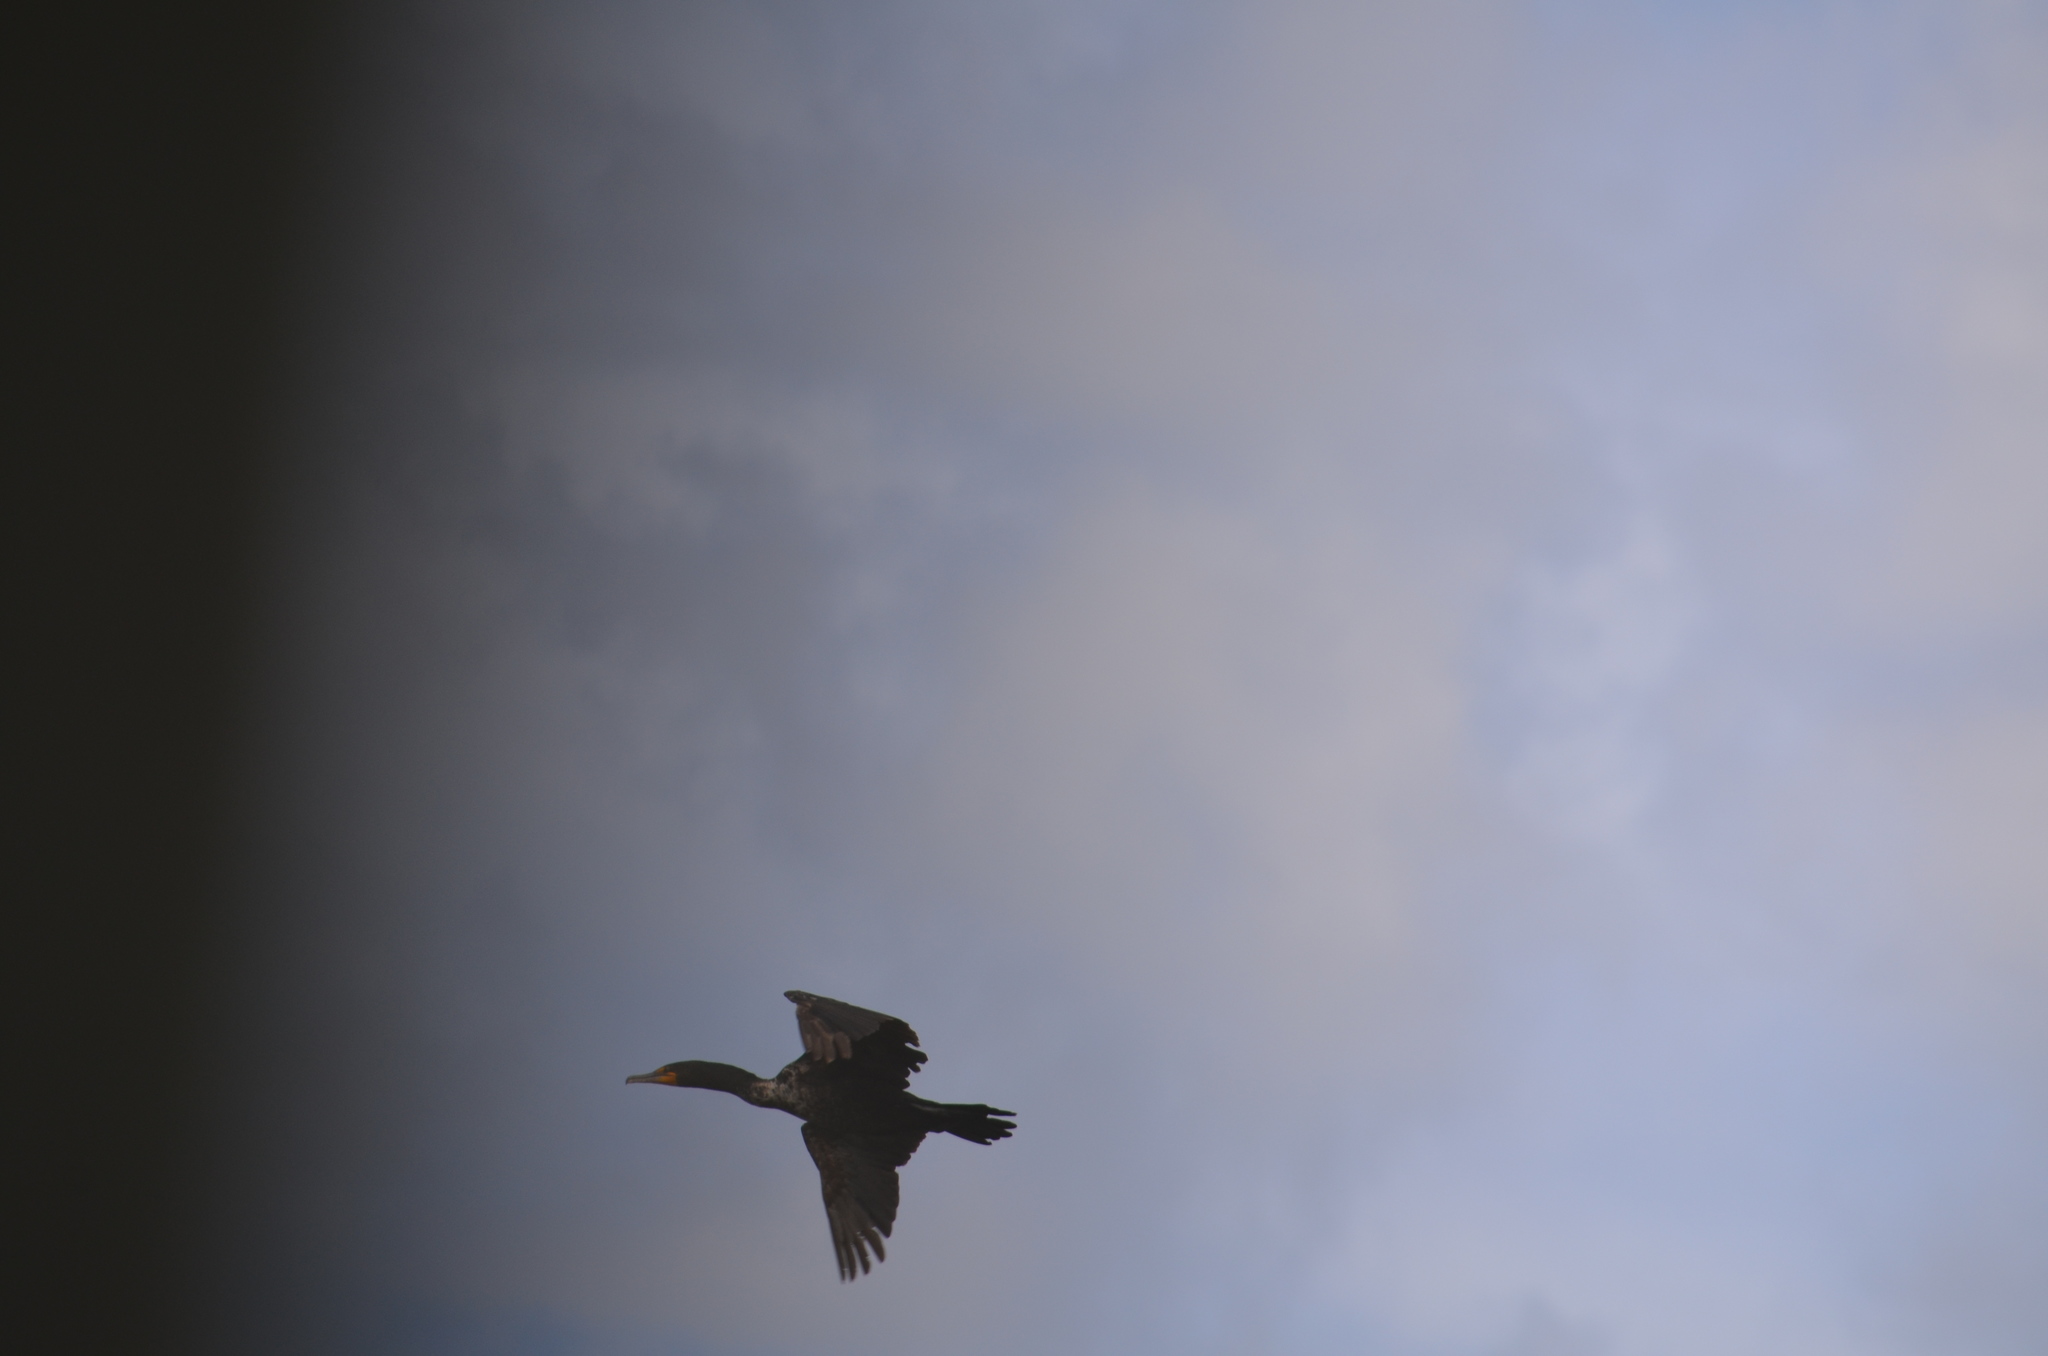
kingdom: Animalia
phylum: Chordata
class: Aves
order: Suliformes
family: Phalacrocoracidae
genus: Phalacrocorax
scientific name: Phalacrocorax auritus
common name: Double-crested cormorant
